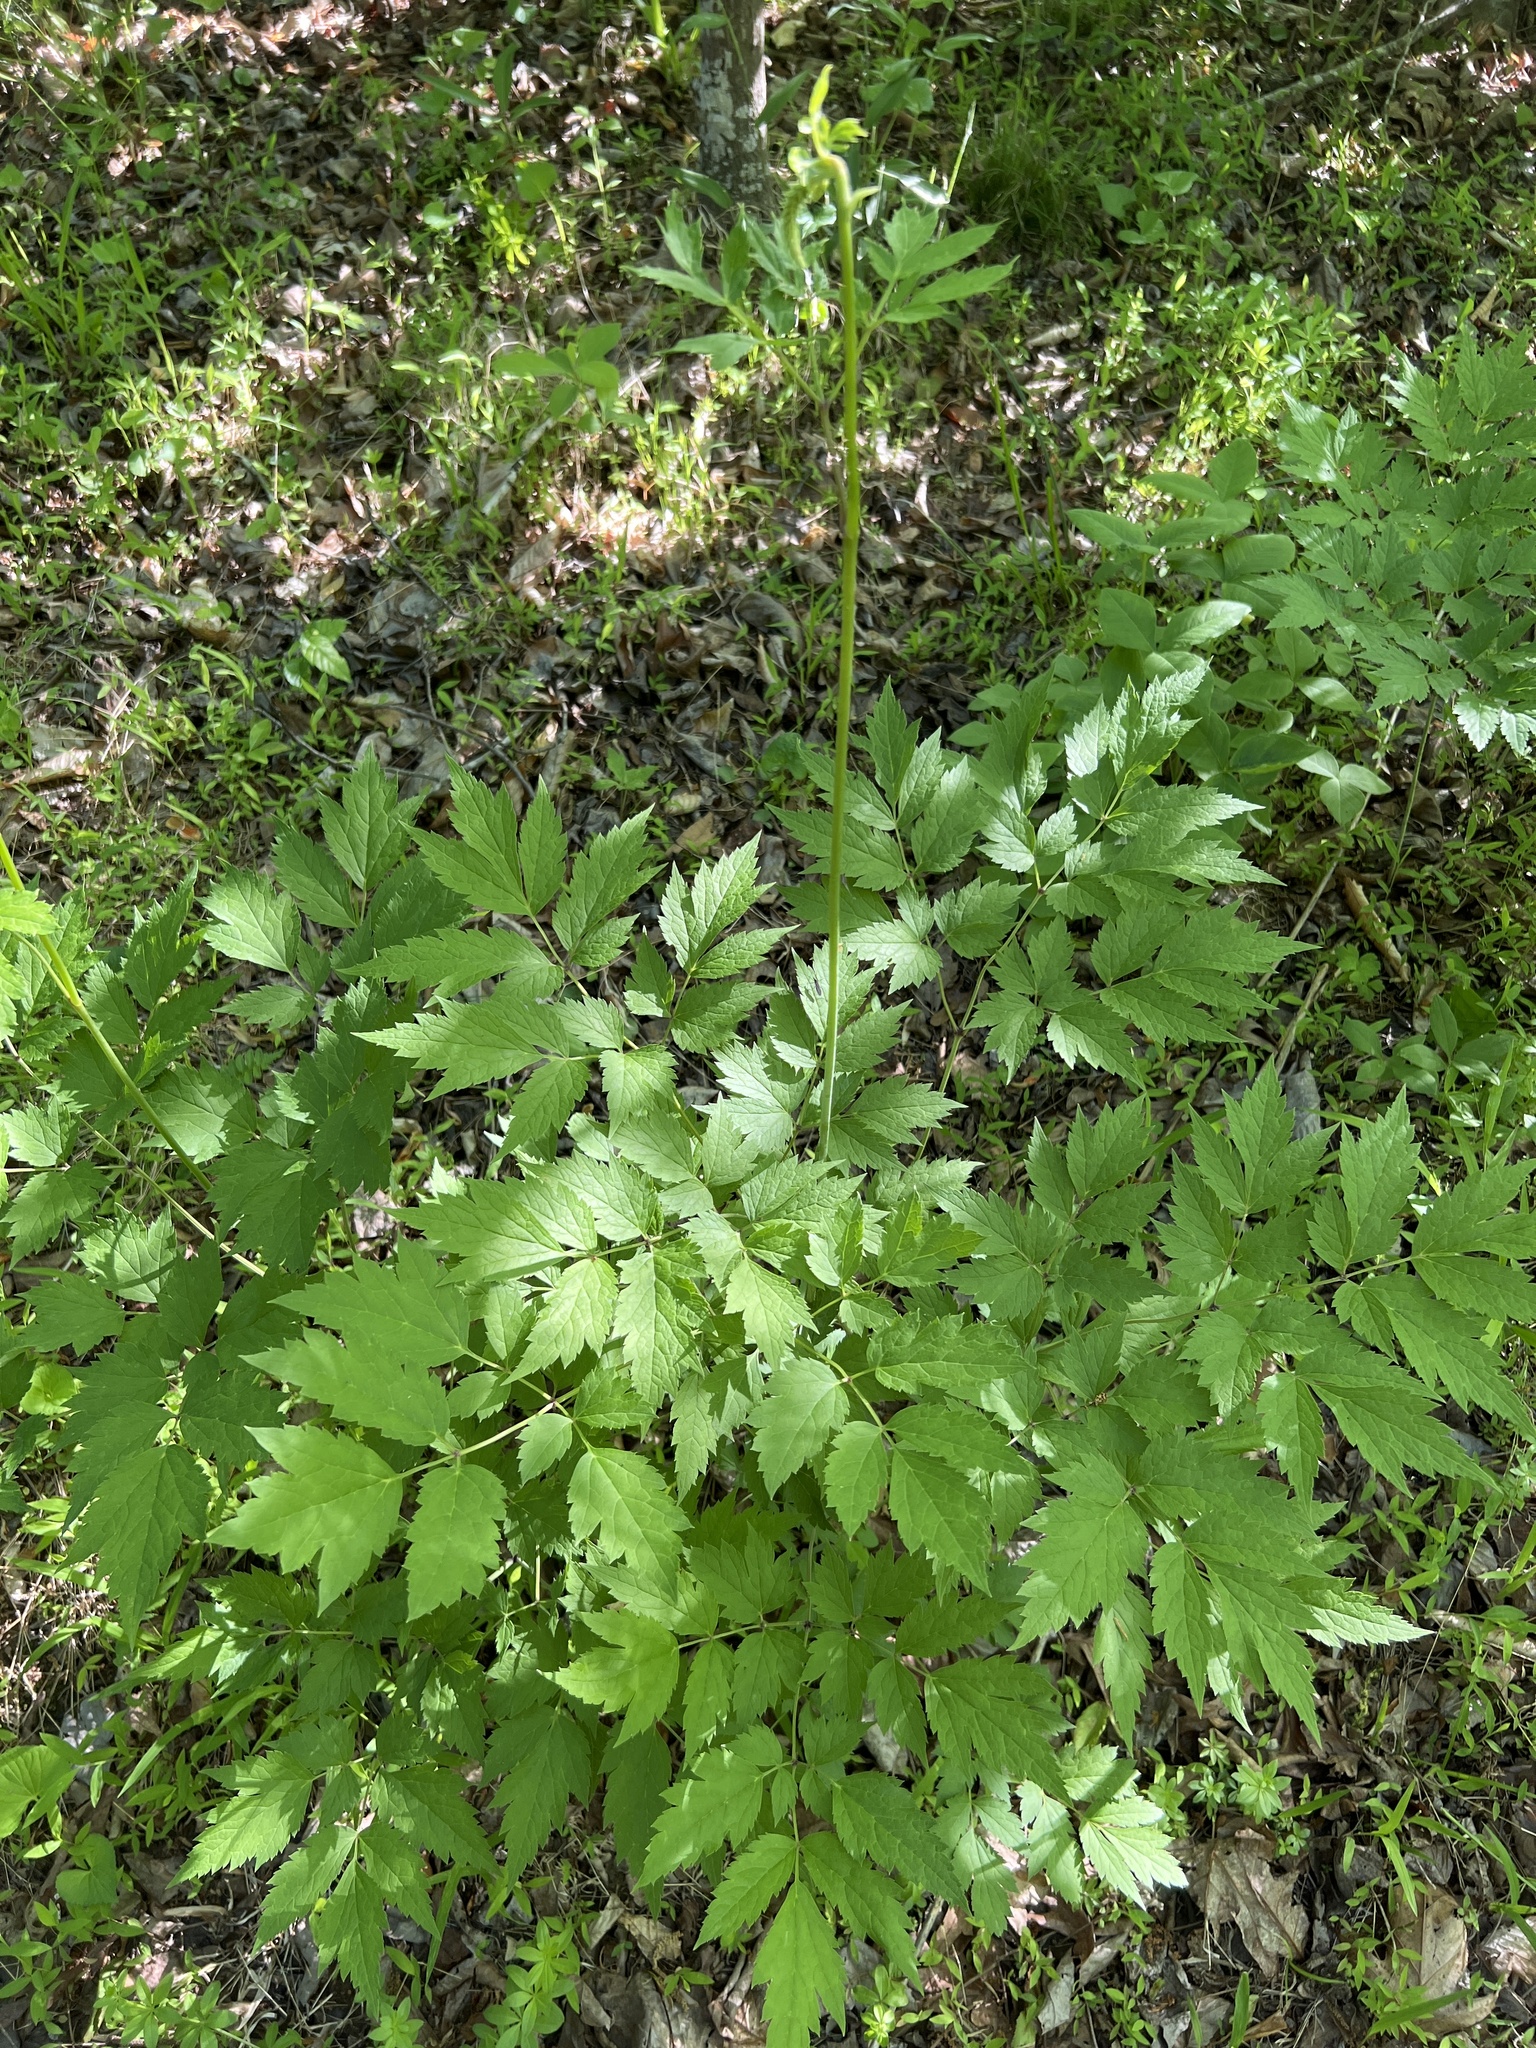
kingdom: Plantae
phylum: Tracheophyta
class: Magnoliopsida
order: Ranunculales
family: Ranunculaceae
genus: Actaea
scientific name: Actaea racemosa
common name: Black cohosh
